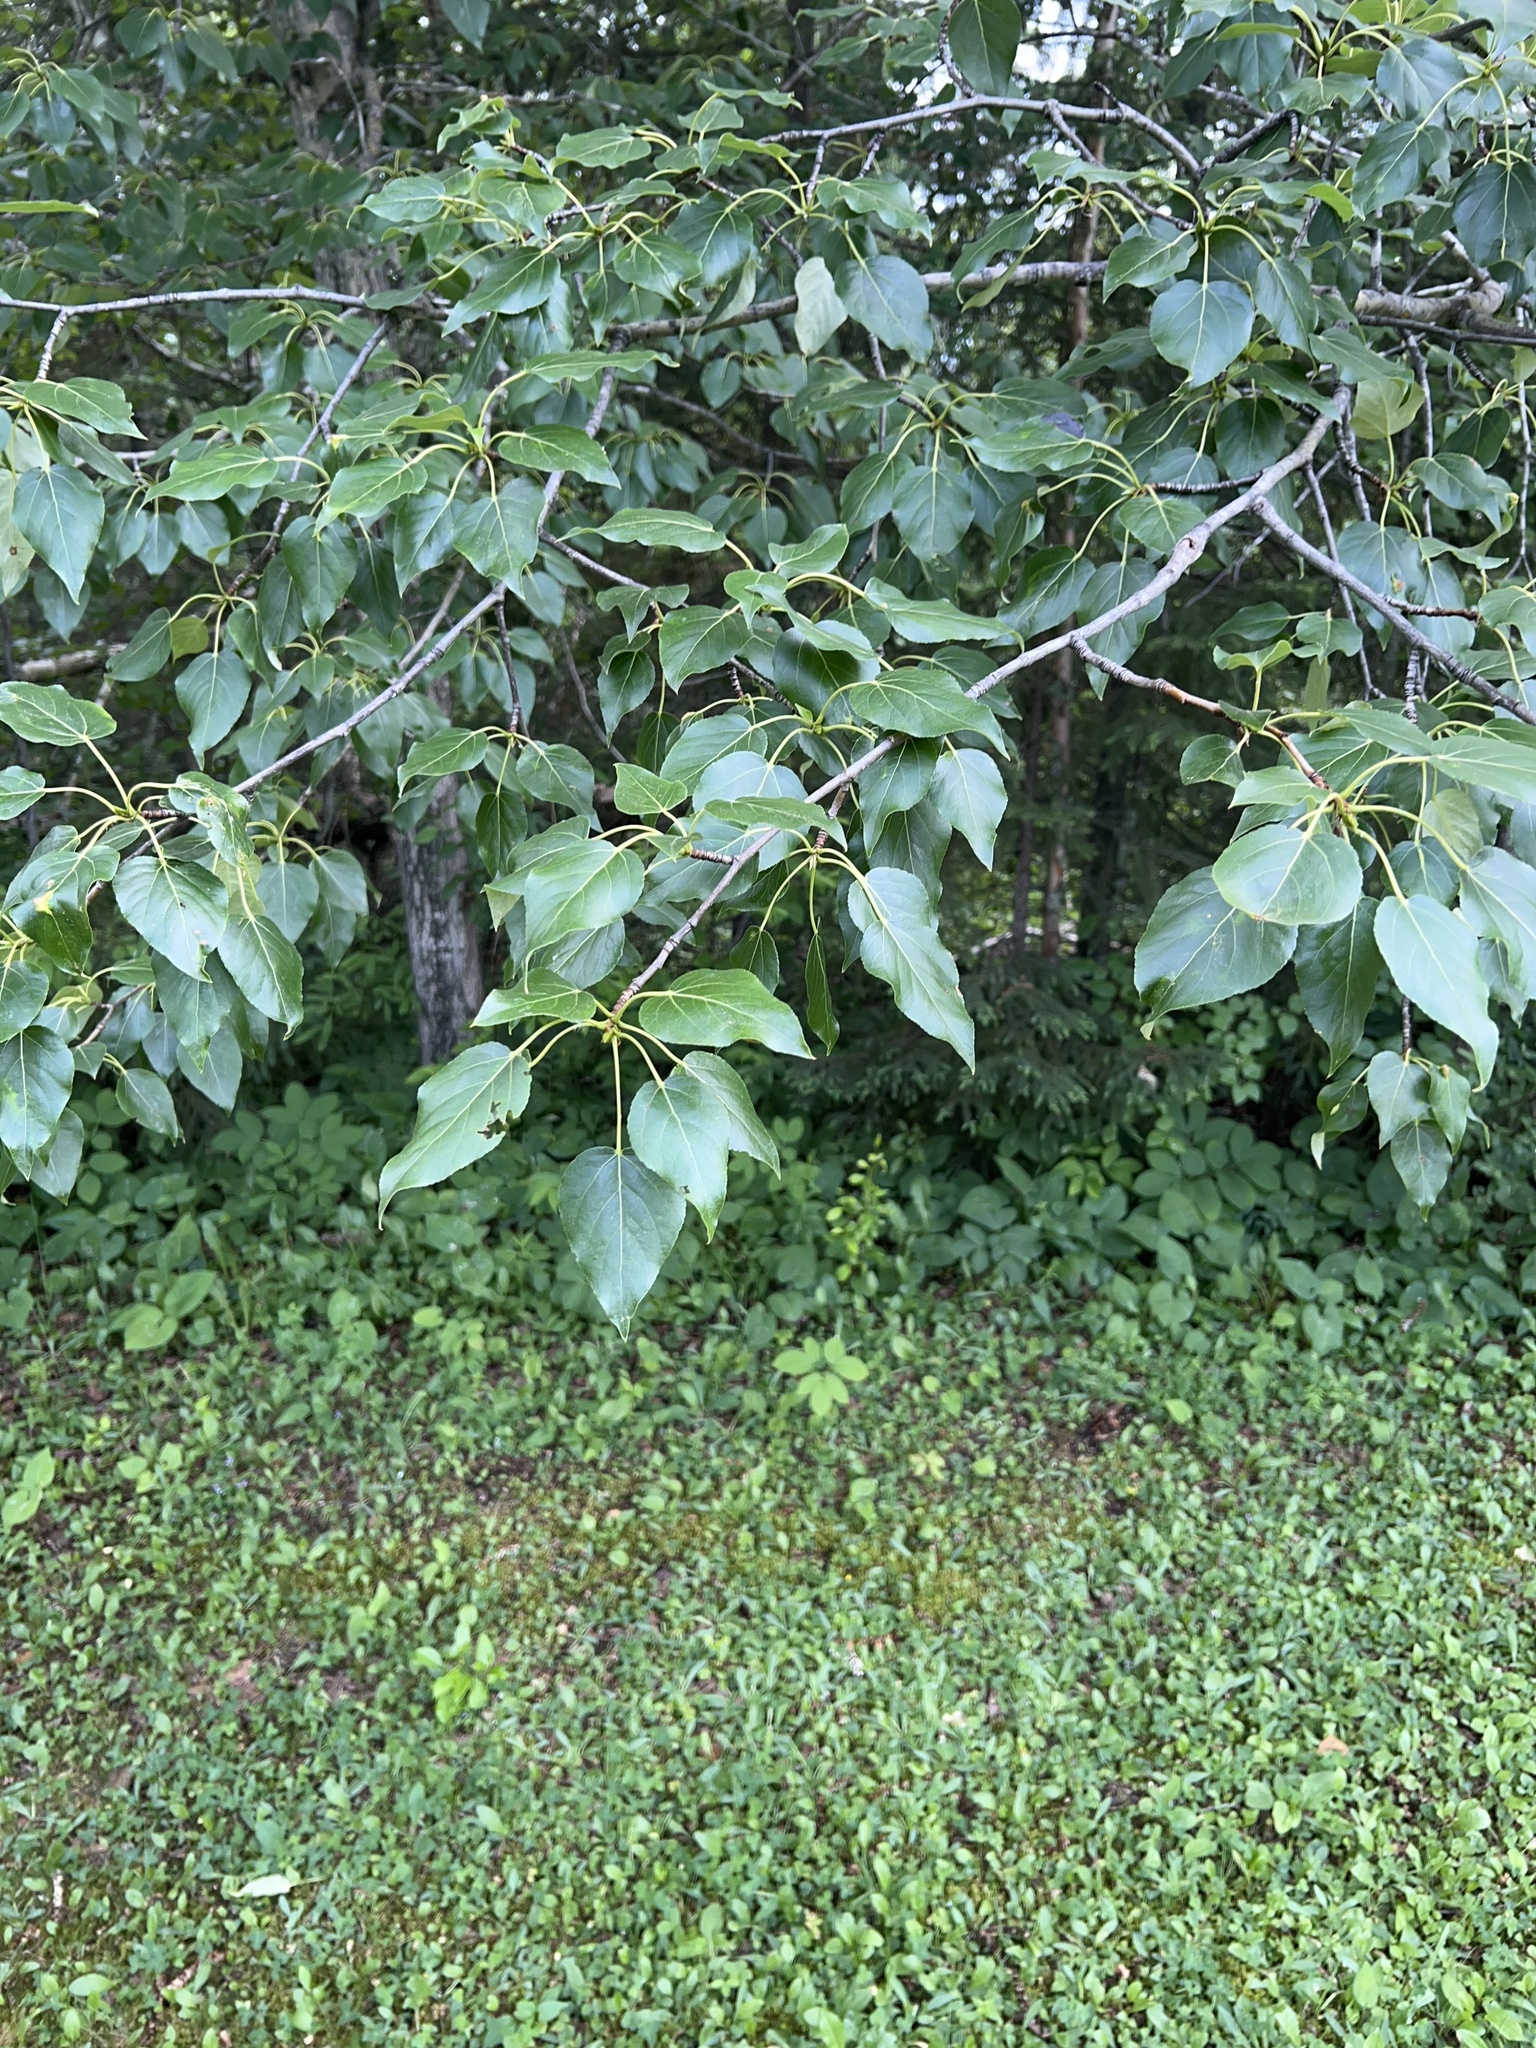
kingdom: Plantae
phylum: Tracheophyta
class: Magnoliopsida
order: Malpighiales
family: Salicaceae
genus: Populus
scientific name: Populus balsamifera
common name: Balsam poplar
